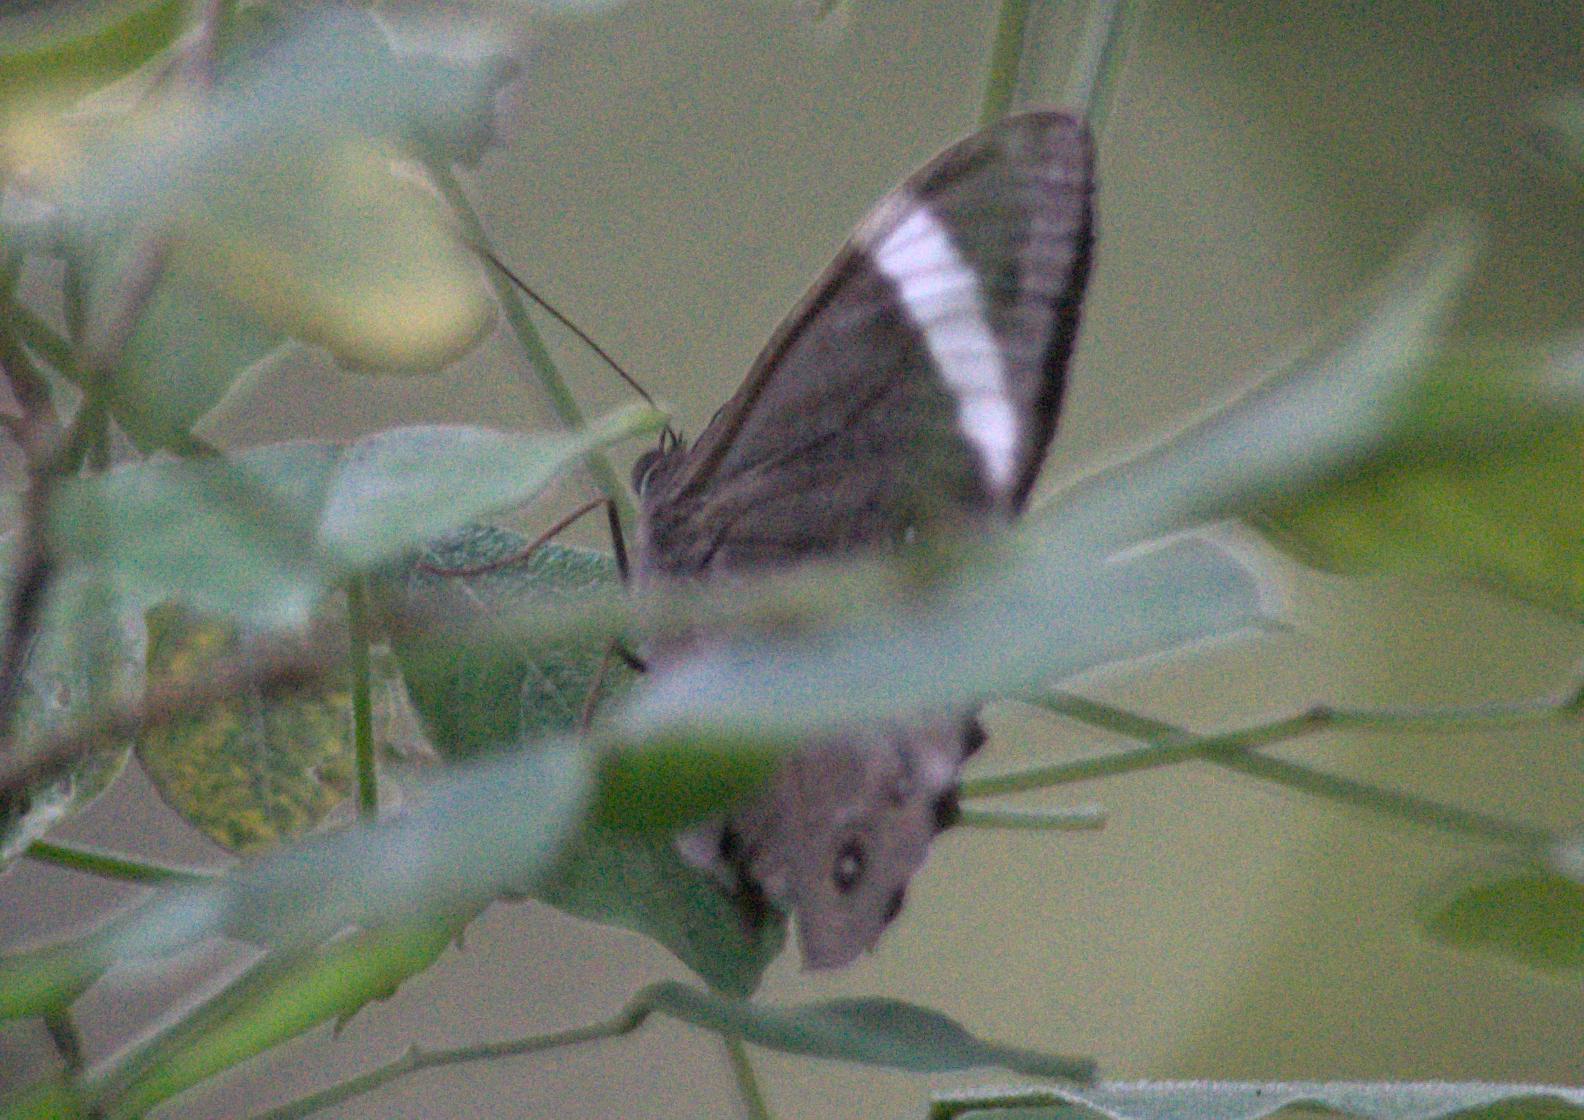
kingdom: Animalia
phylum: Arthropoda
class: Insecta
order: Lepidoptera
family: Nymphalidae
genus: Lethe
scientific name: Lethe verma
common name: Straight-banded treebrown
